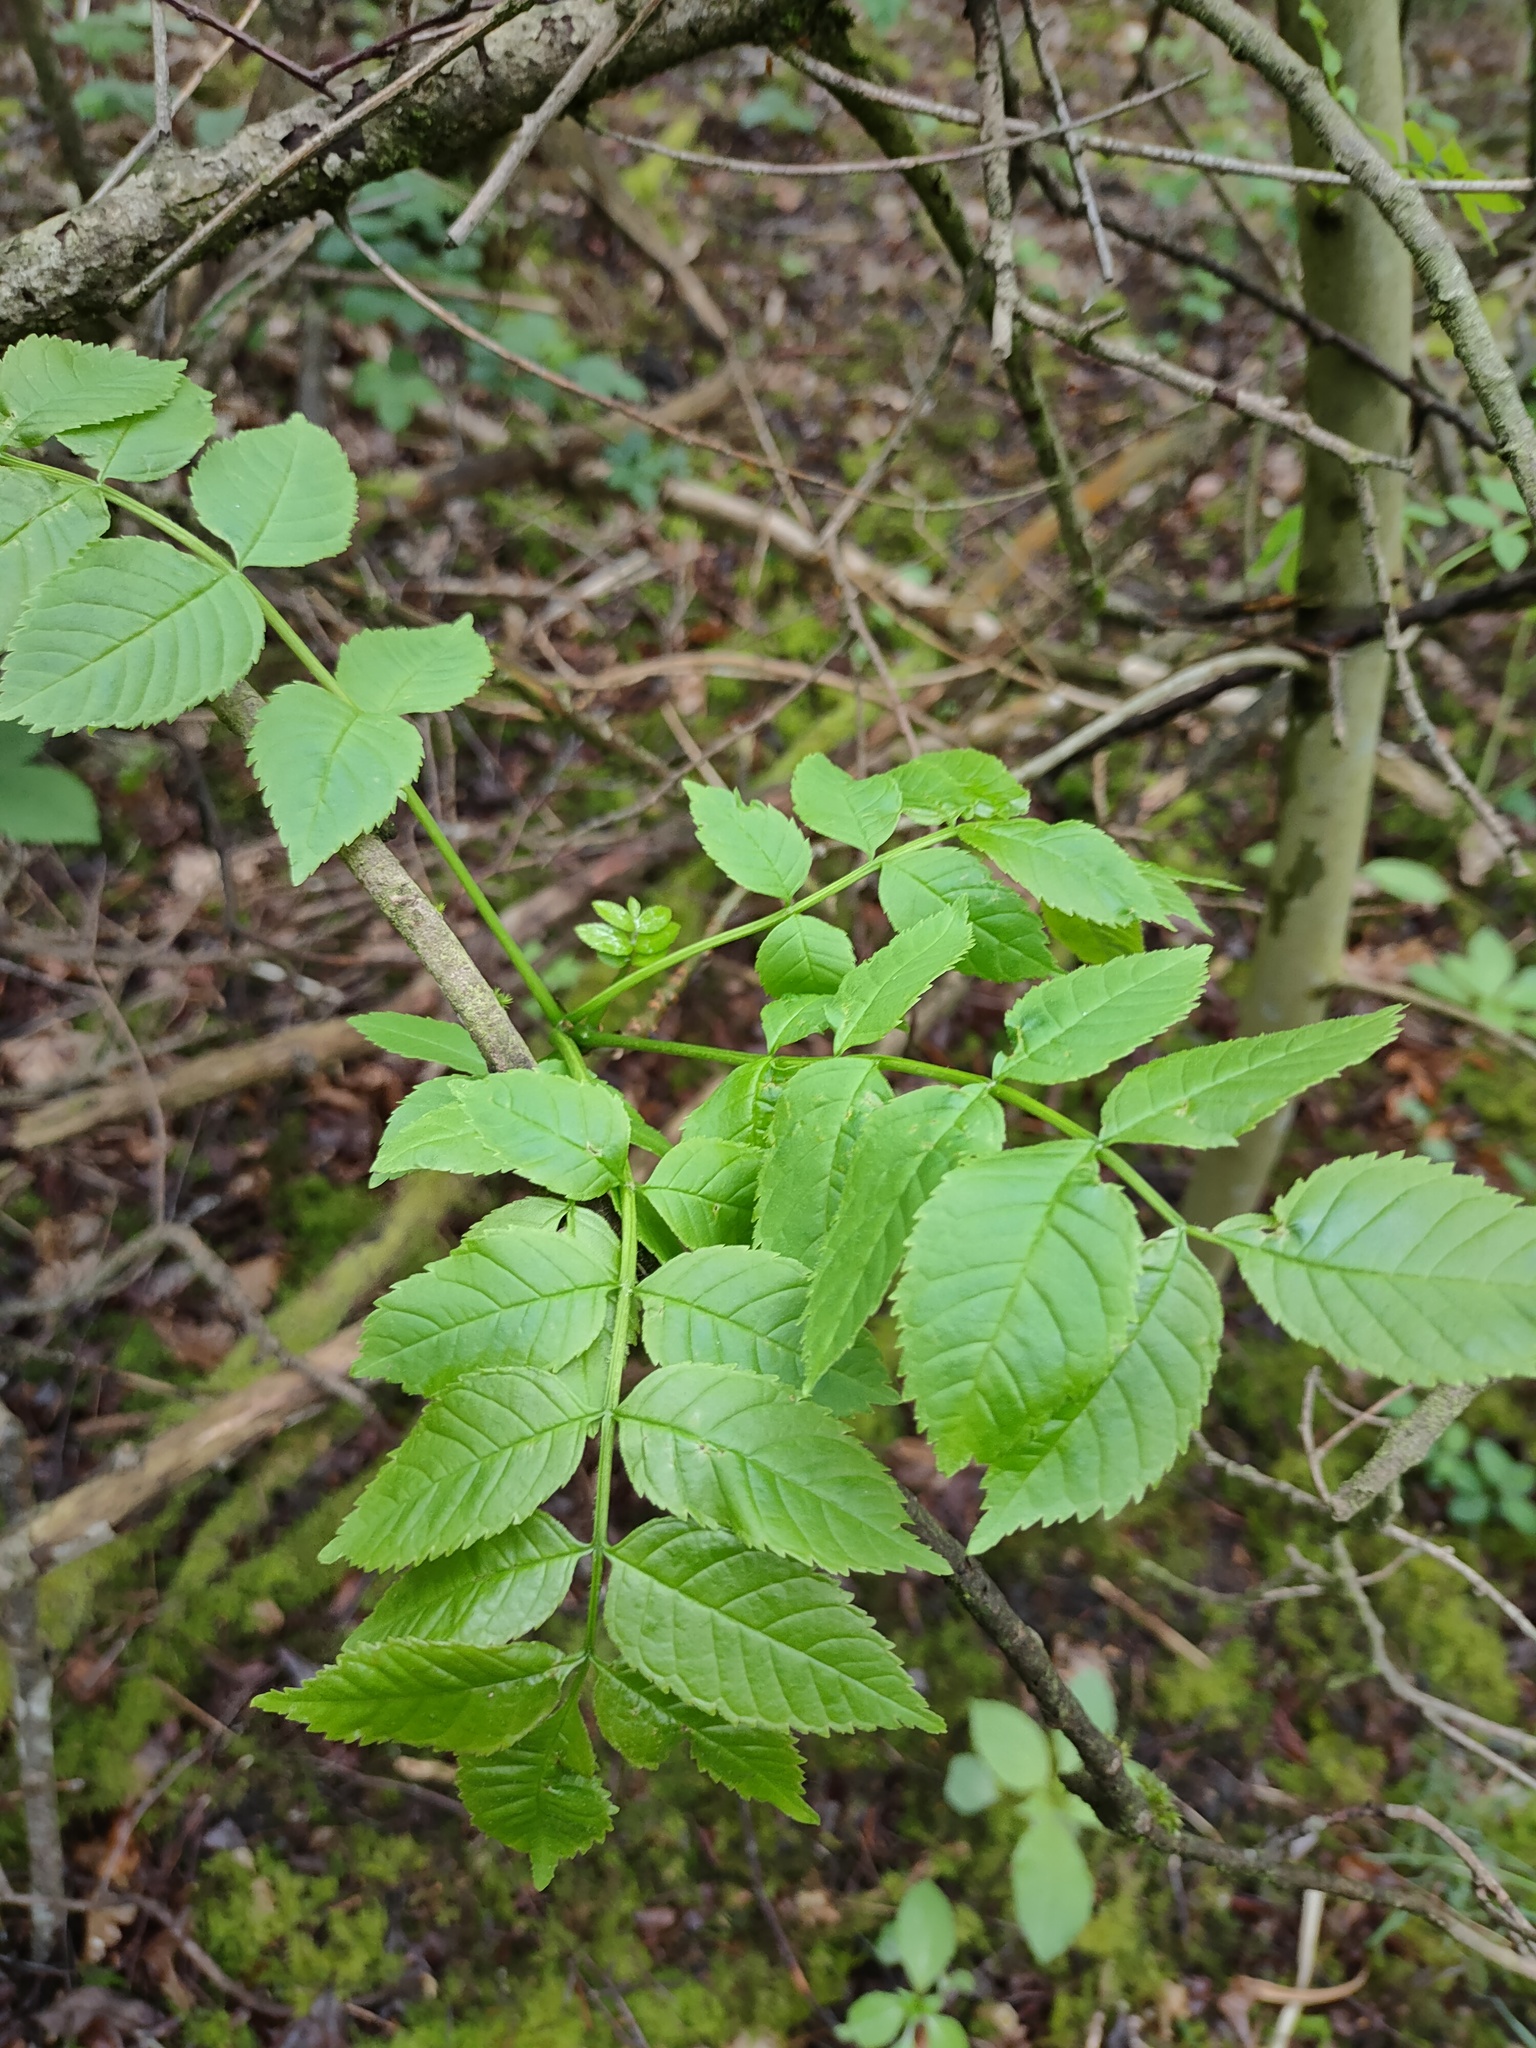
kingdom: Plantae
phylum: Tracheophyta
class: Magnoliopsida
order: Lamiales
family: Oleaceae
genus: Fraxinus
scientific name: Fraxinus excelsior
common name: European ash
